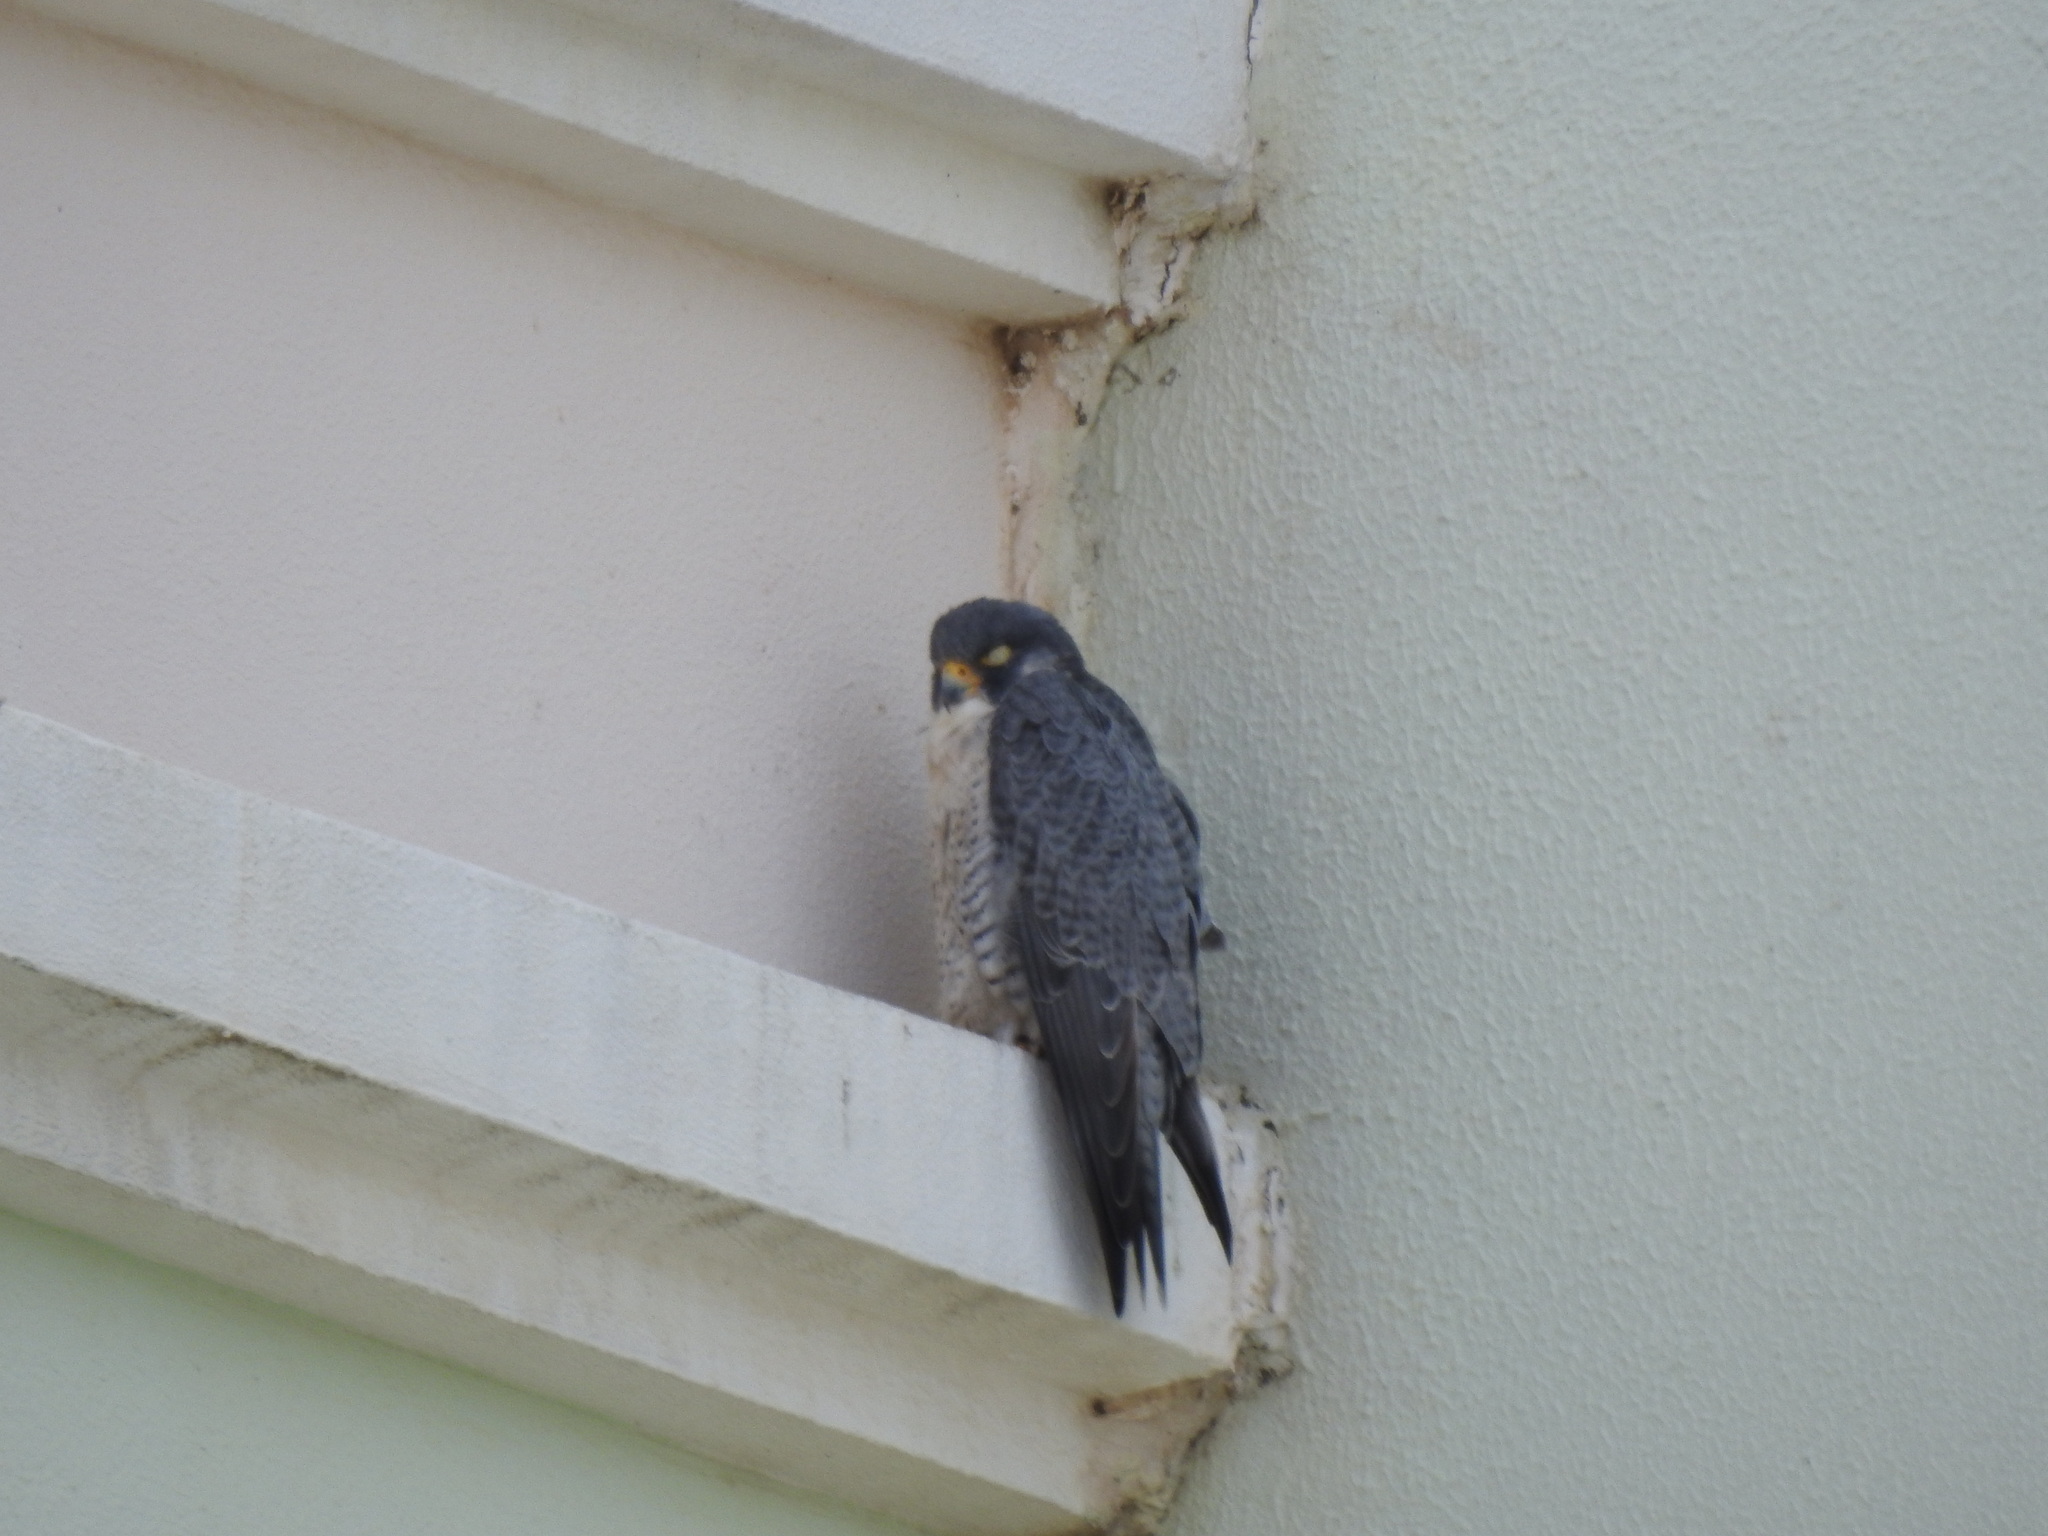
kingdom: Animalia
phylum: Chordata
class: Aves
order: Falconiformes
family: Falconidae
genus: Falco
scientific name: Falco peregrinus
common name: Peregrine falcon
